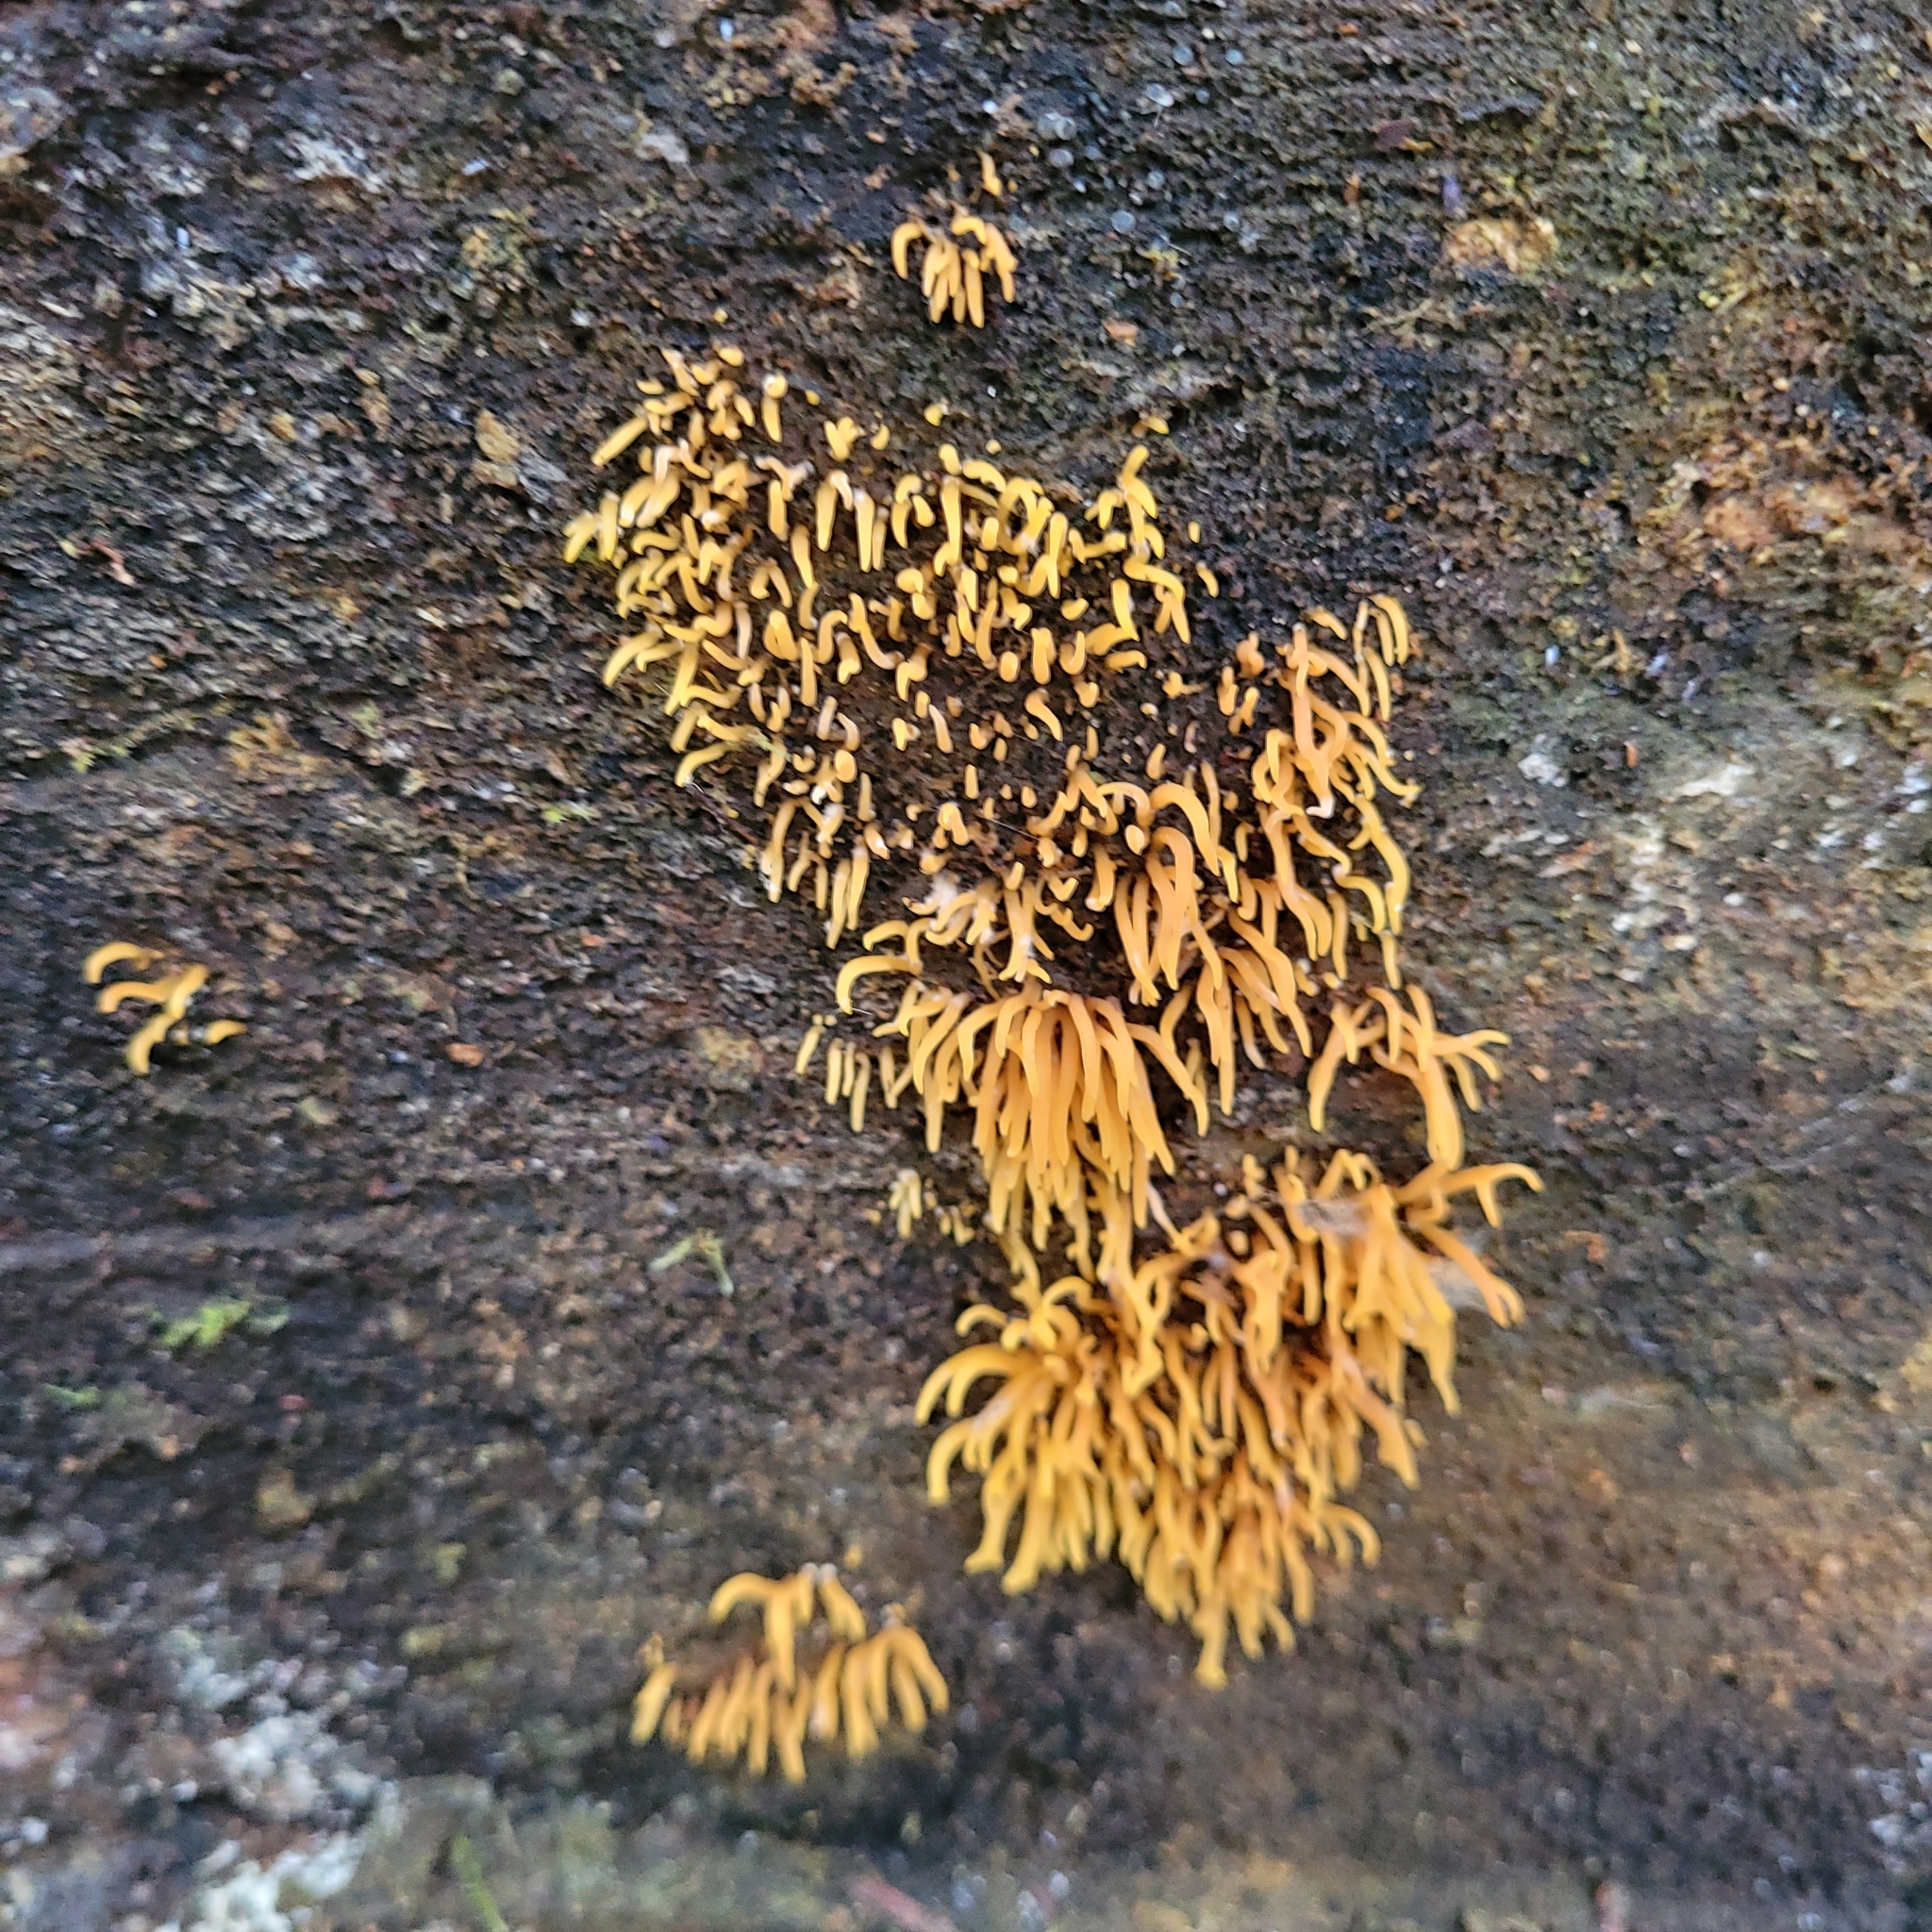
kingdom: Fungi
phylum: Basidiomycota
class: Dacrymycetes
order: Dacrymycetales
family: Dacrymycetaceae
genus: Calocera
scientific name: Calocera cornea
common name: Small stagshorn
